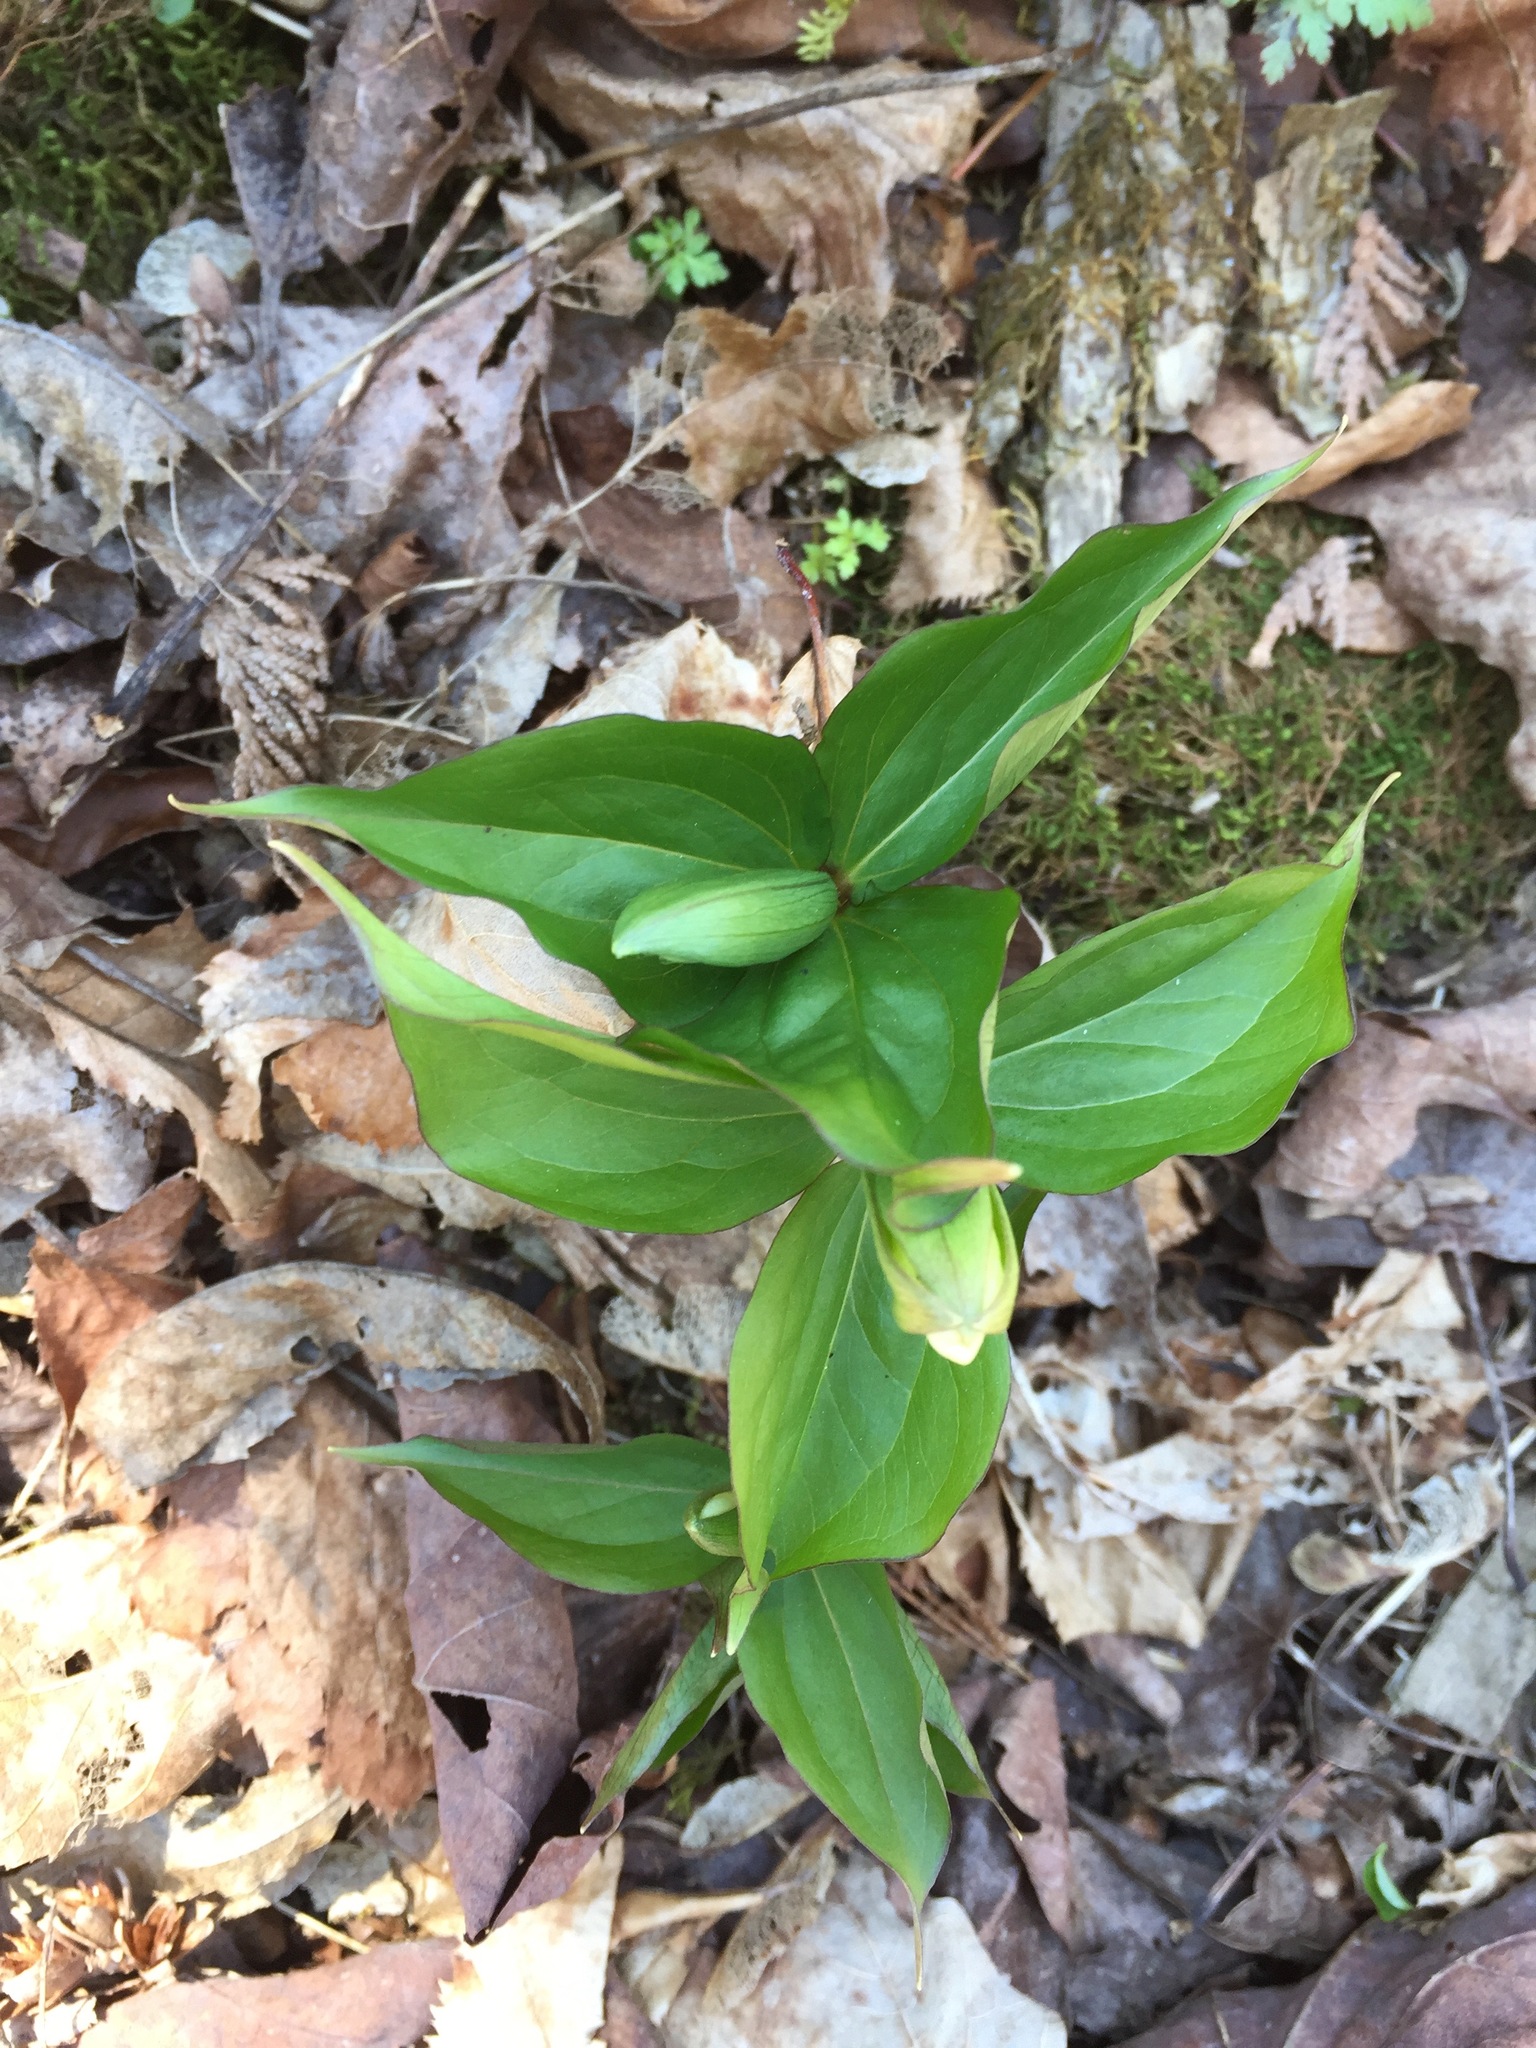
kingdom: Plantae
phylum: Tracheophyta
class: Liliopsida
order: Liliales
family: Melanthiaceae
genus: Trillium
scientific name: Trillium grandiflorum
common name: Great white trillium
